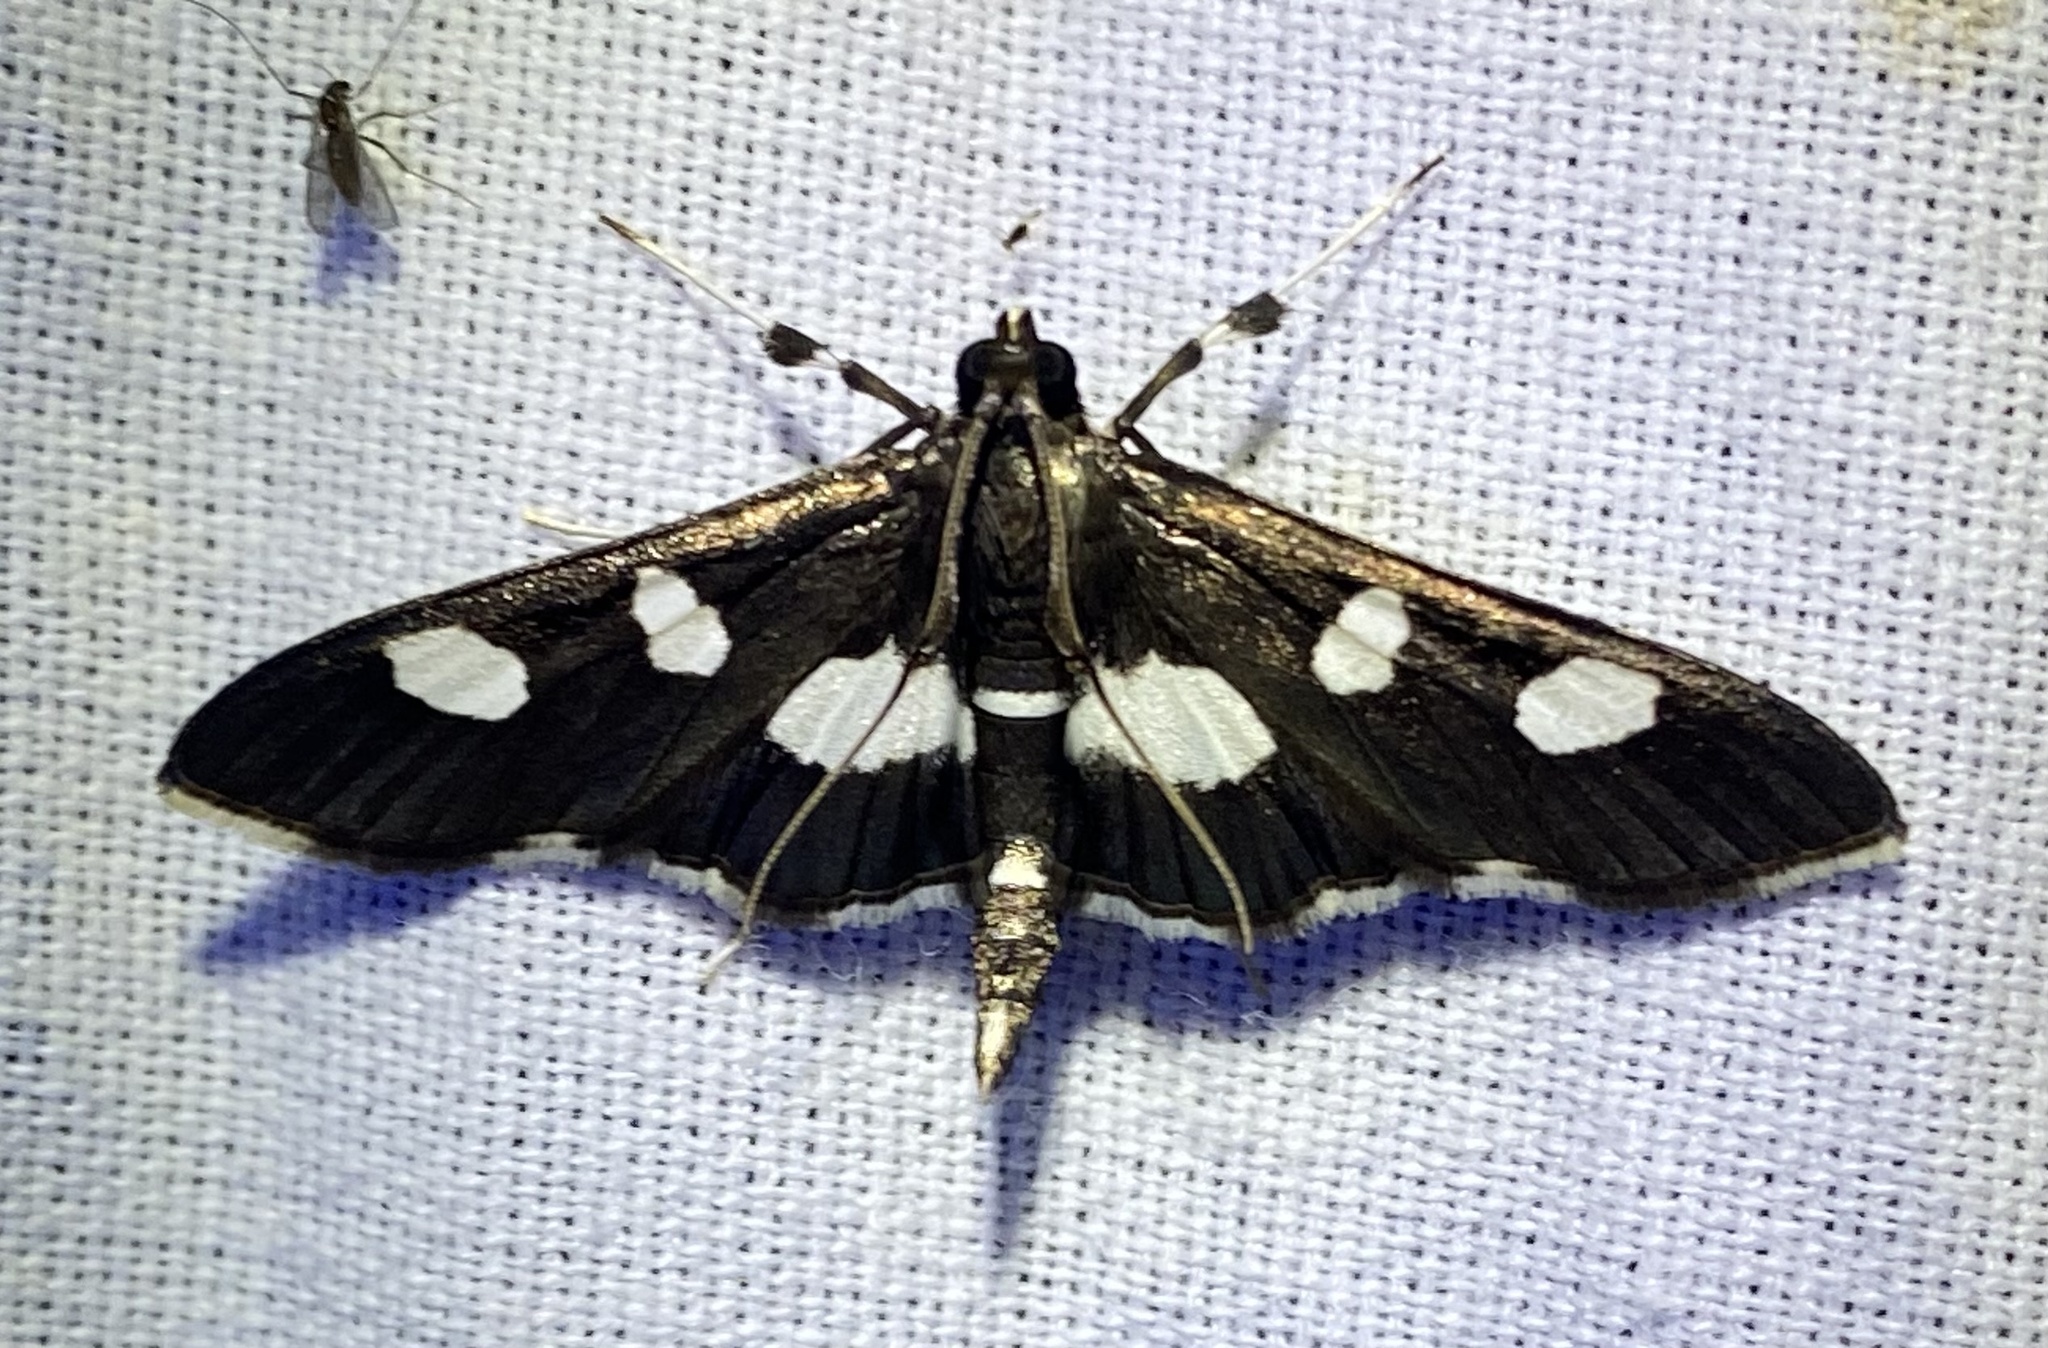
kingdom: Animalia
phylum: Arthropoda
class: Insecta
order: Lepidoptera
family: Crambidae
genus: Desmia
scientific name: Desmia funeralis
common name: Grape leaf folder moth
